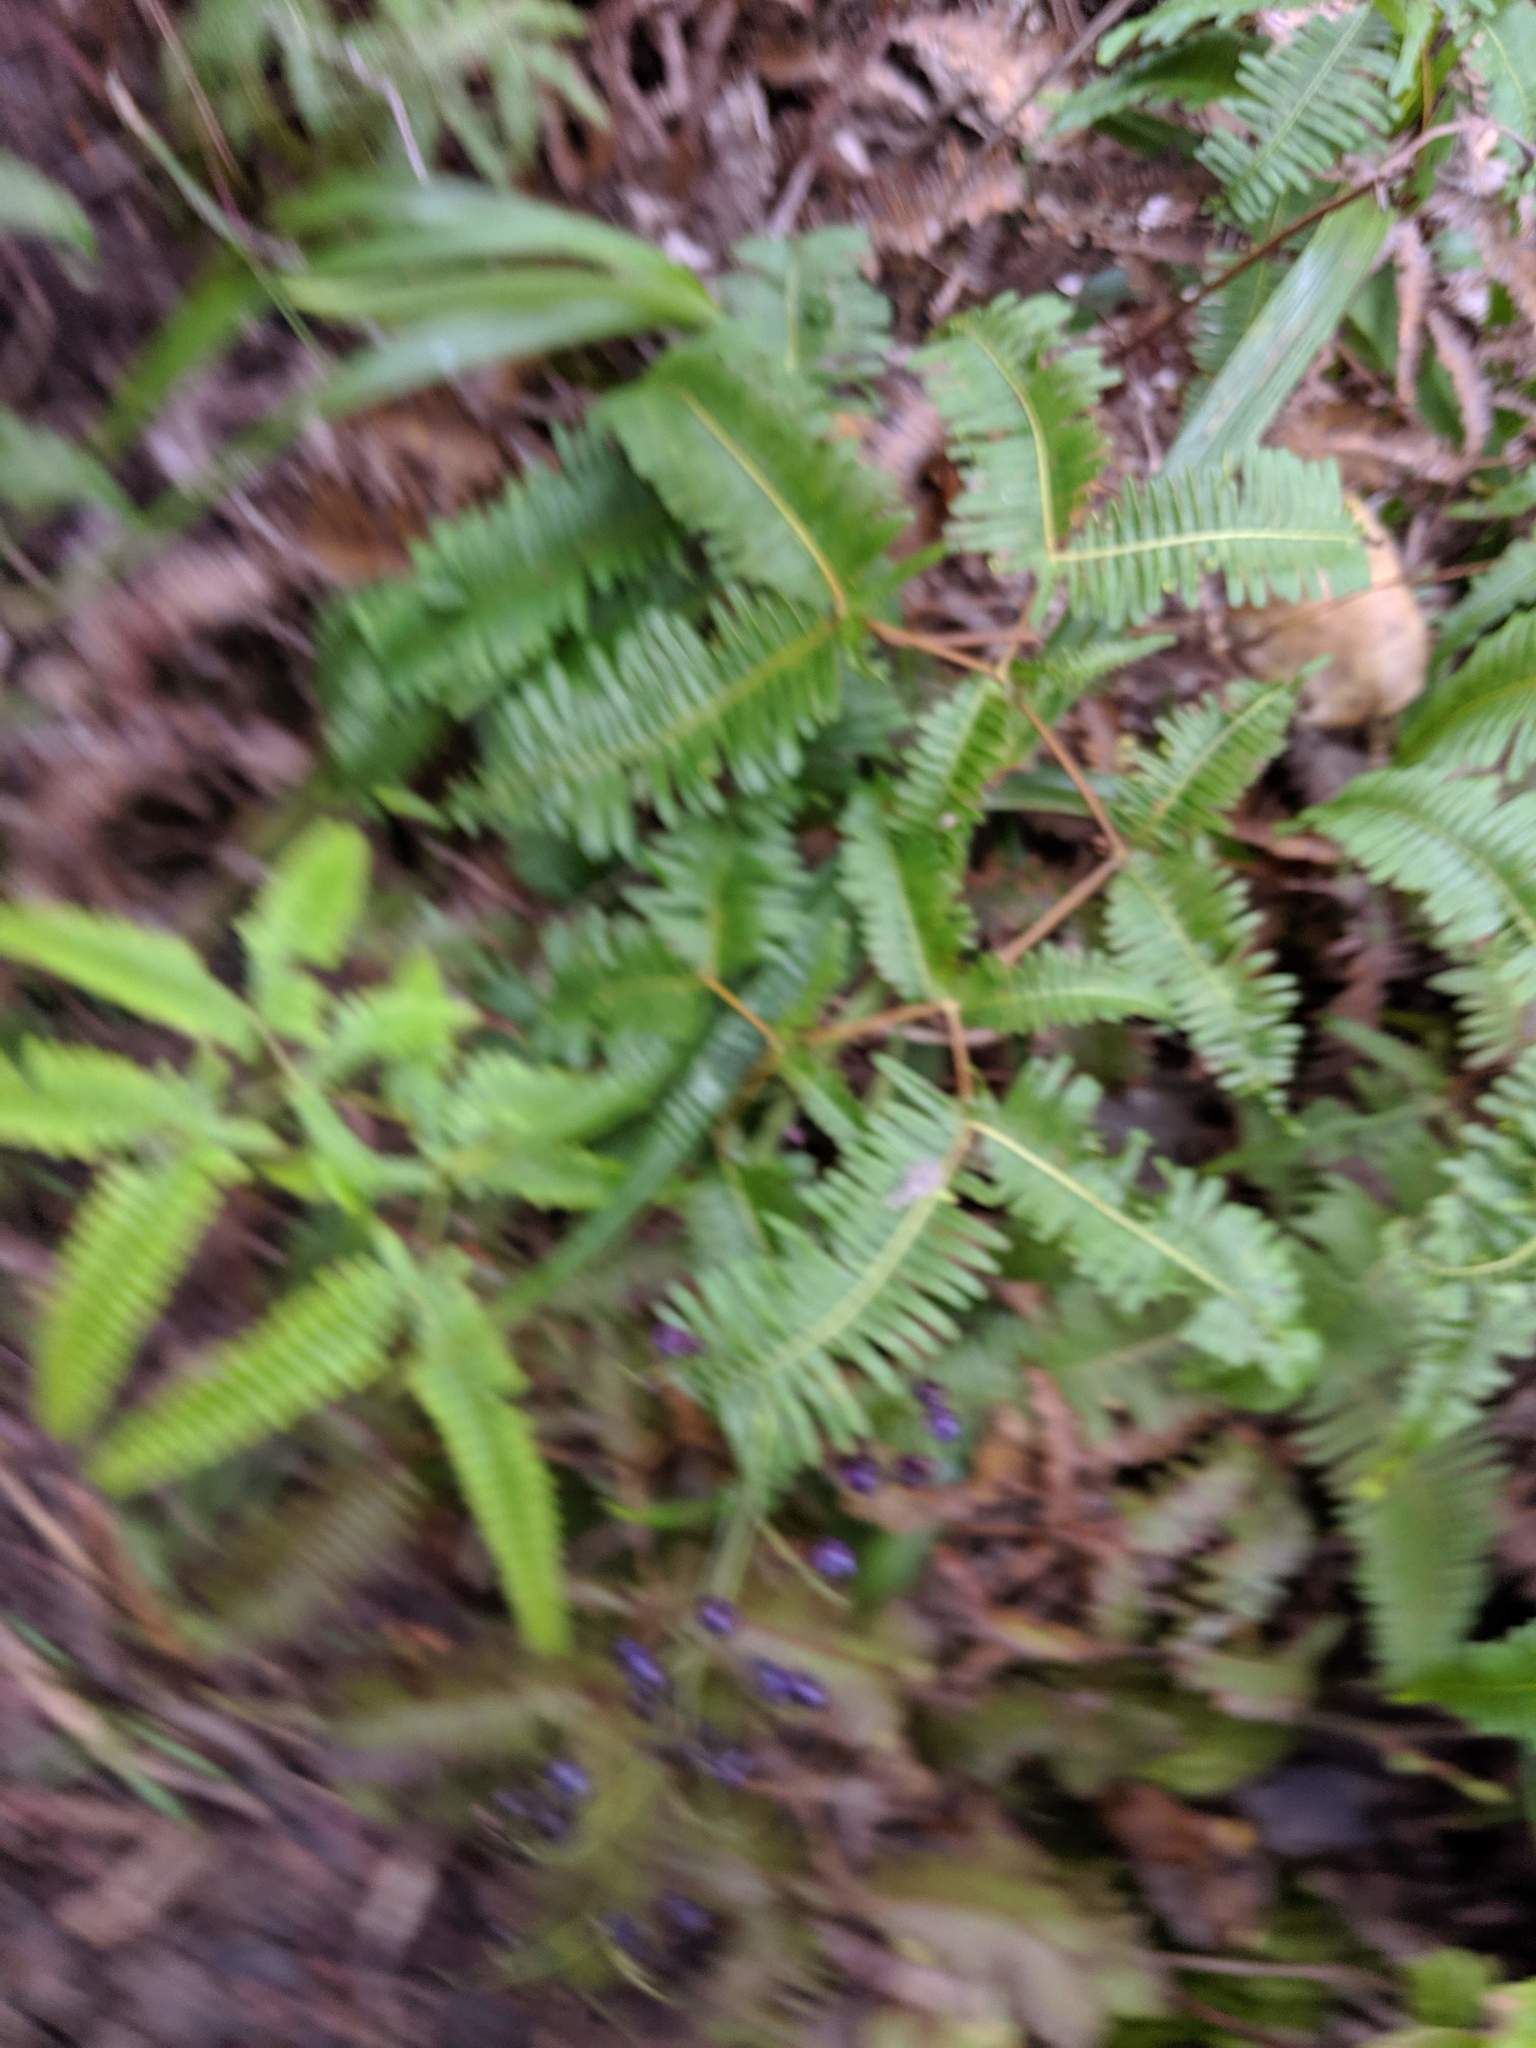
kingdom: Plantae
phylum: Tracheophyta
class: Liliopsida
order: Asparagales
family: Asphodelaceae
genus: Dianella
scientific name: Dianella sandwicensis
